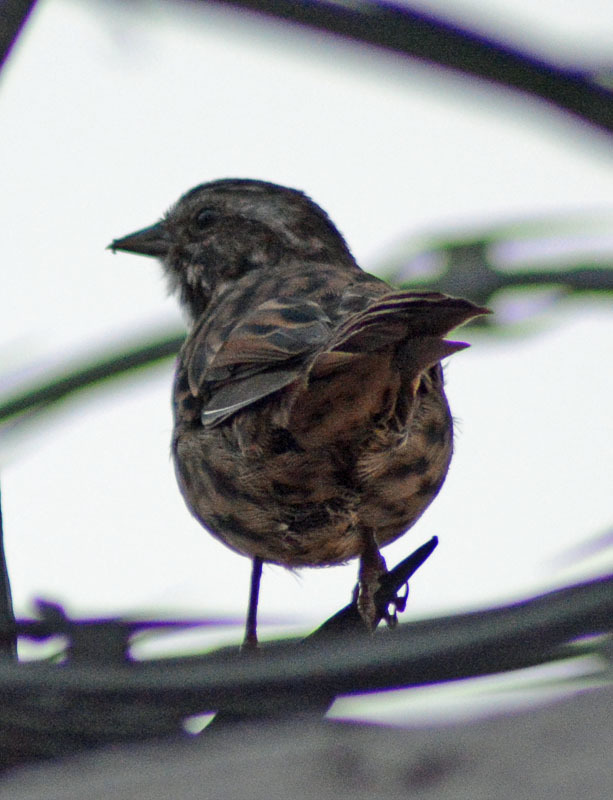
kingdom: Animalia
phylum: Chordata
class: Aves
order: Passeriformes
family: Passerellidae
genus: Melospiza
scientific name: Melospiza melodia
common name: Song sparrow
